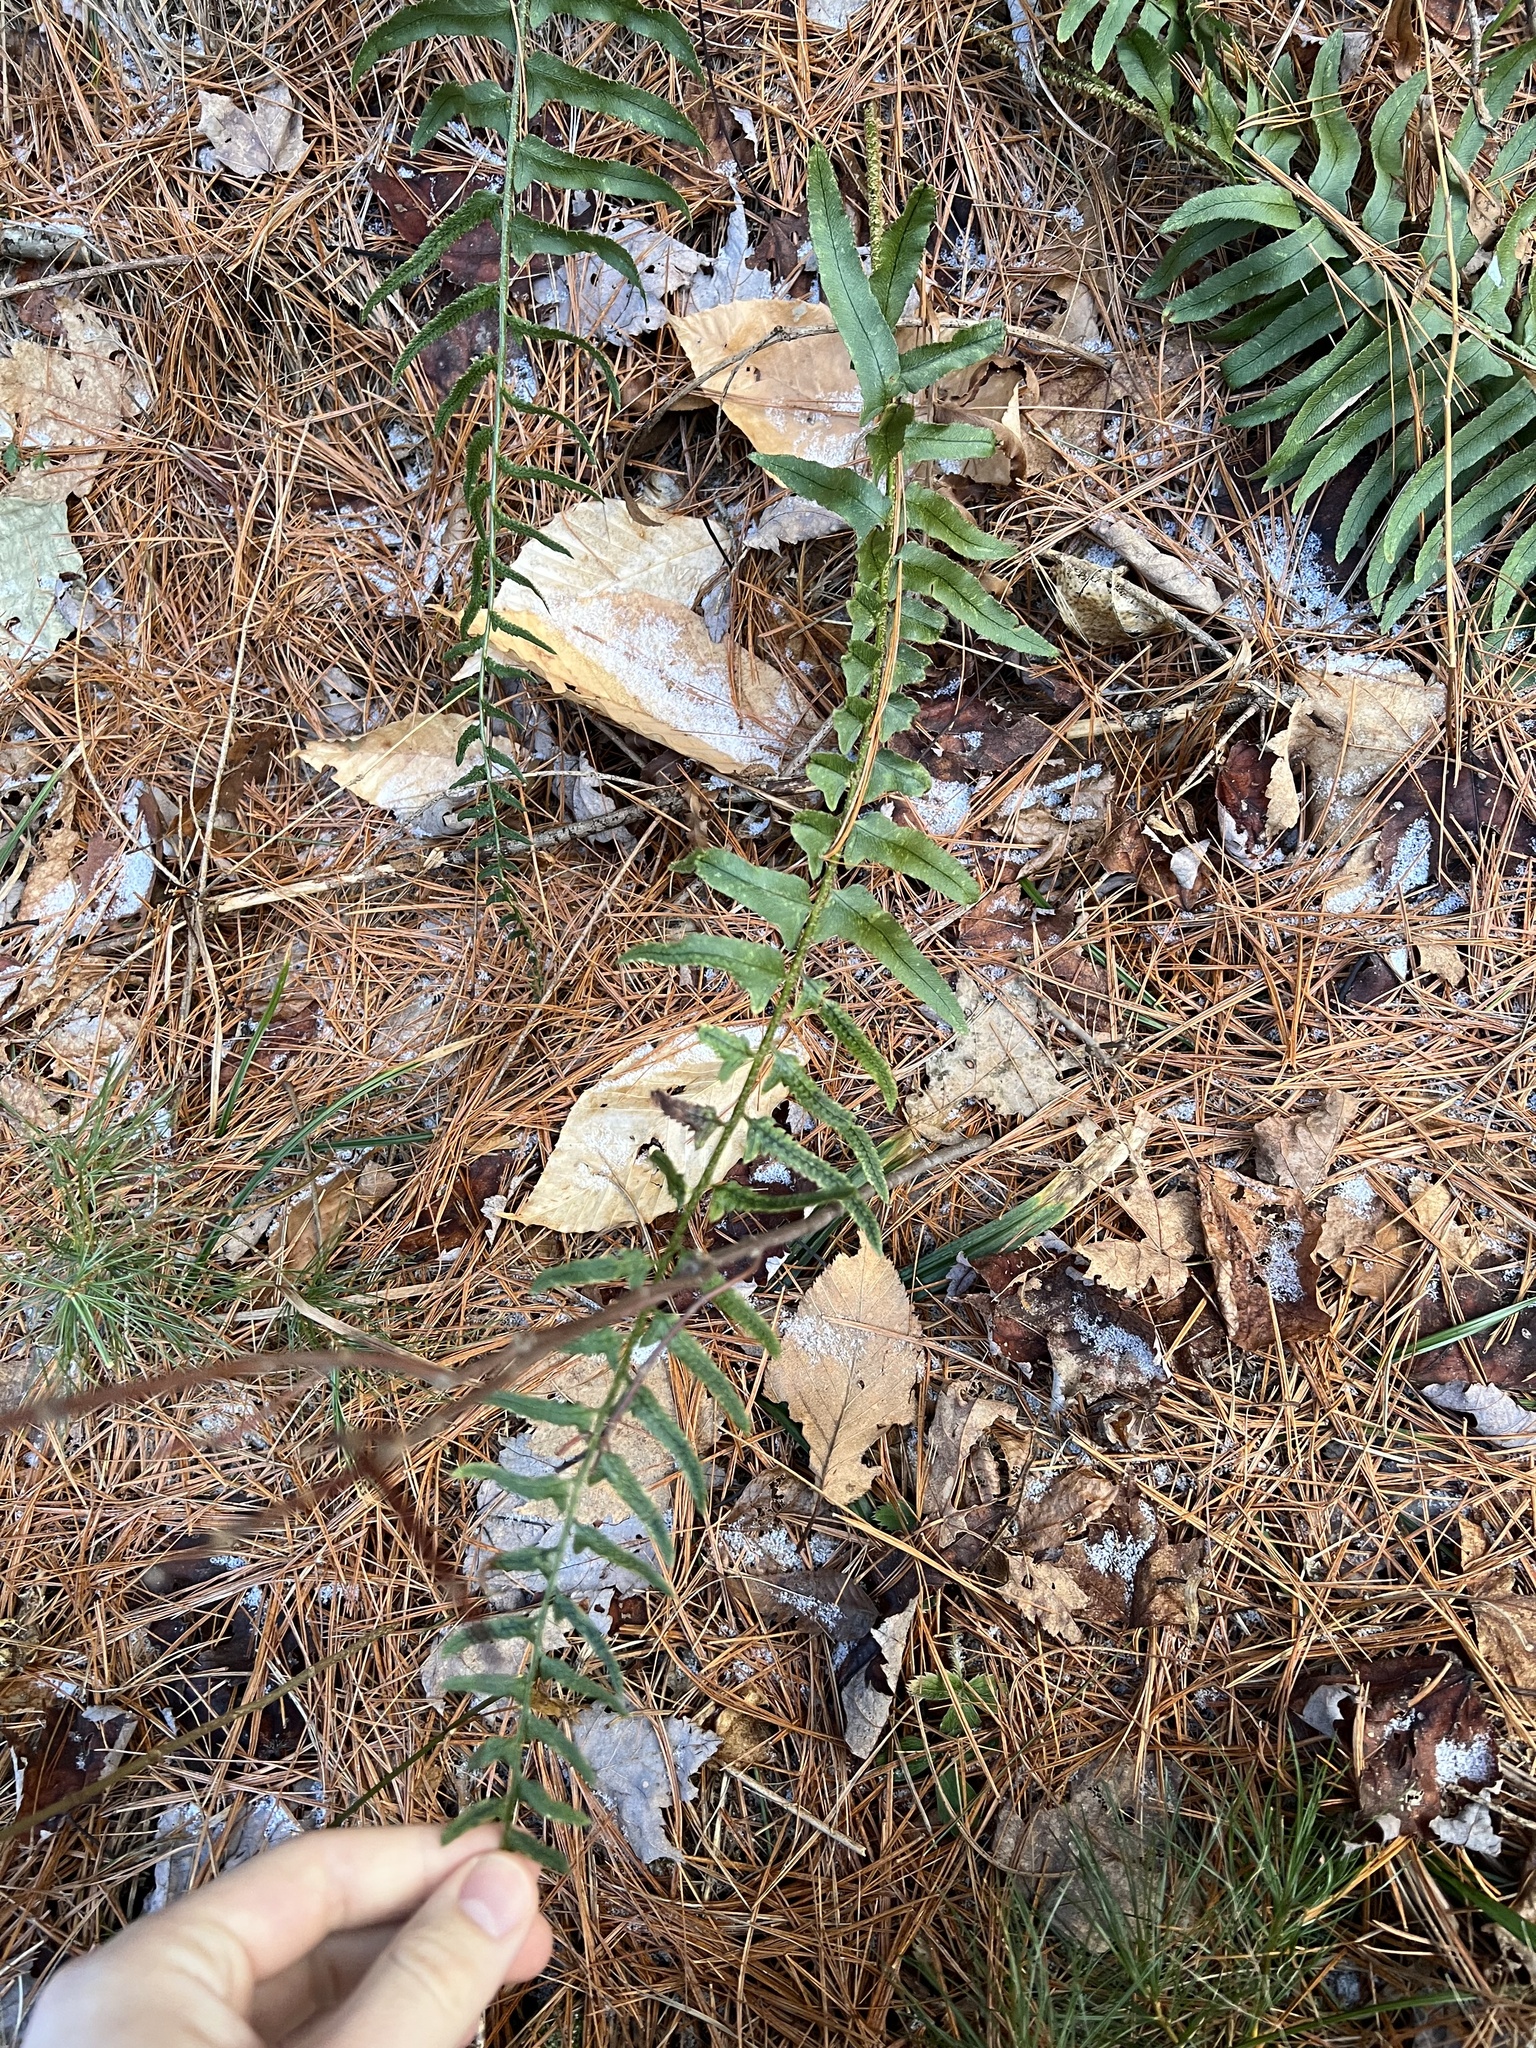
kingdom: Plantae
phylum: Tracheophyta
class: Polypodiopsida
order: Polypodiales
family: Dryopteridaceae
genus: Polystichum
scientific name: Polystichum acrostichoides
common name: Christmas fern
